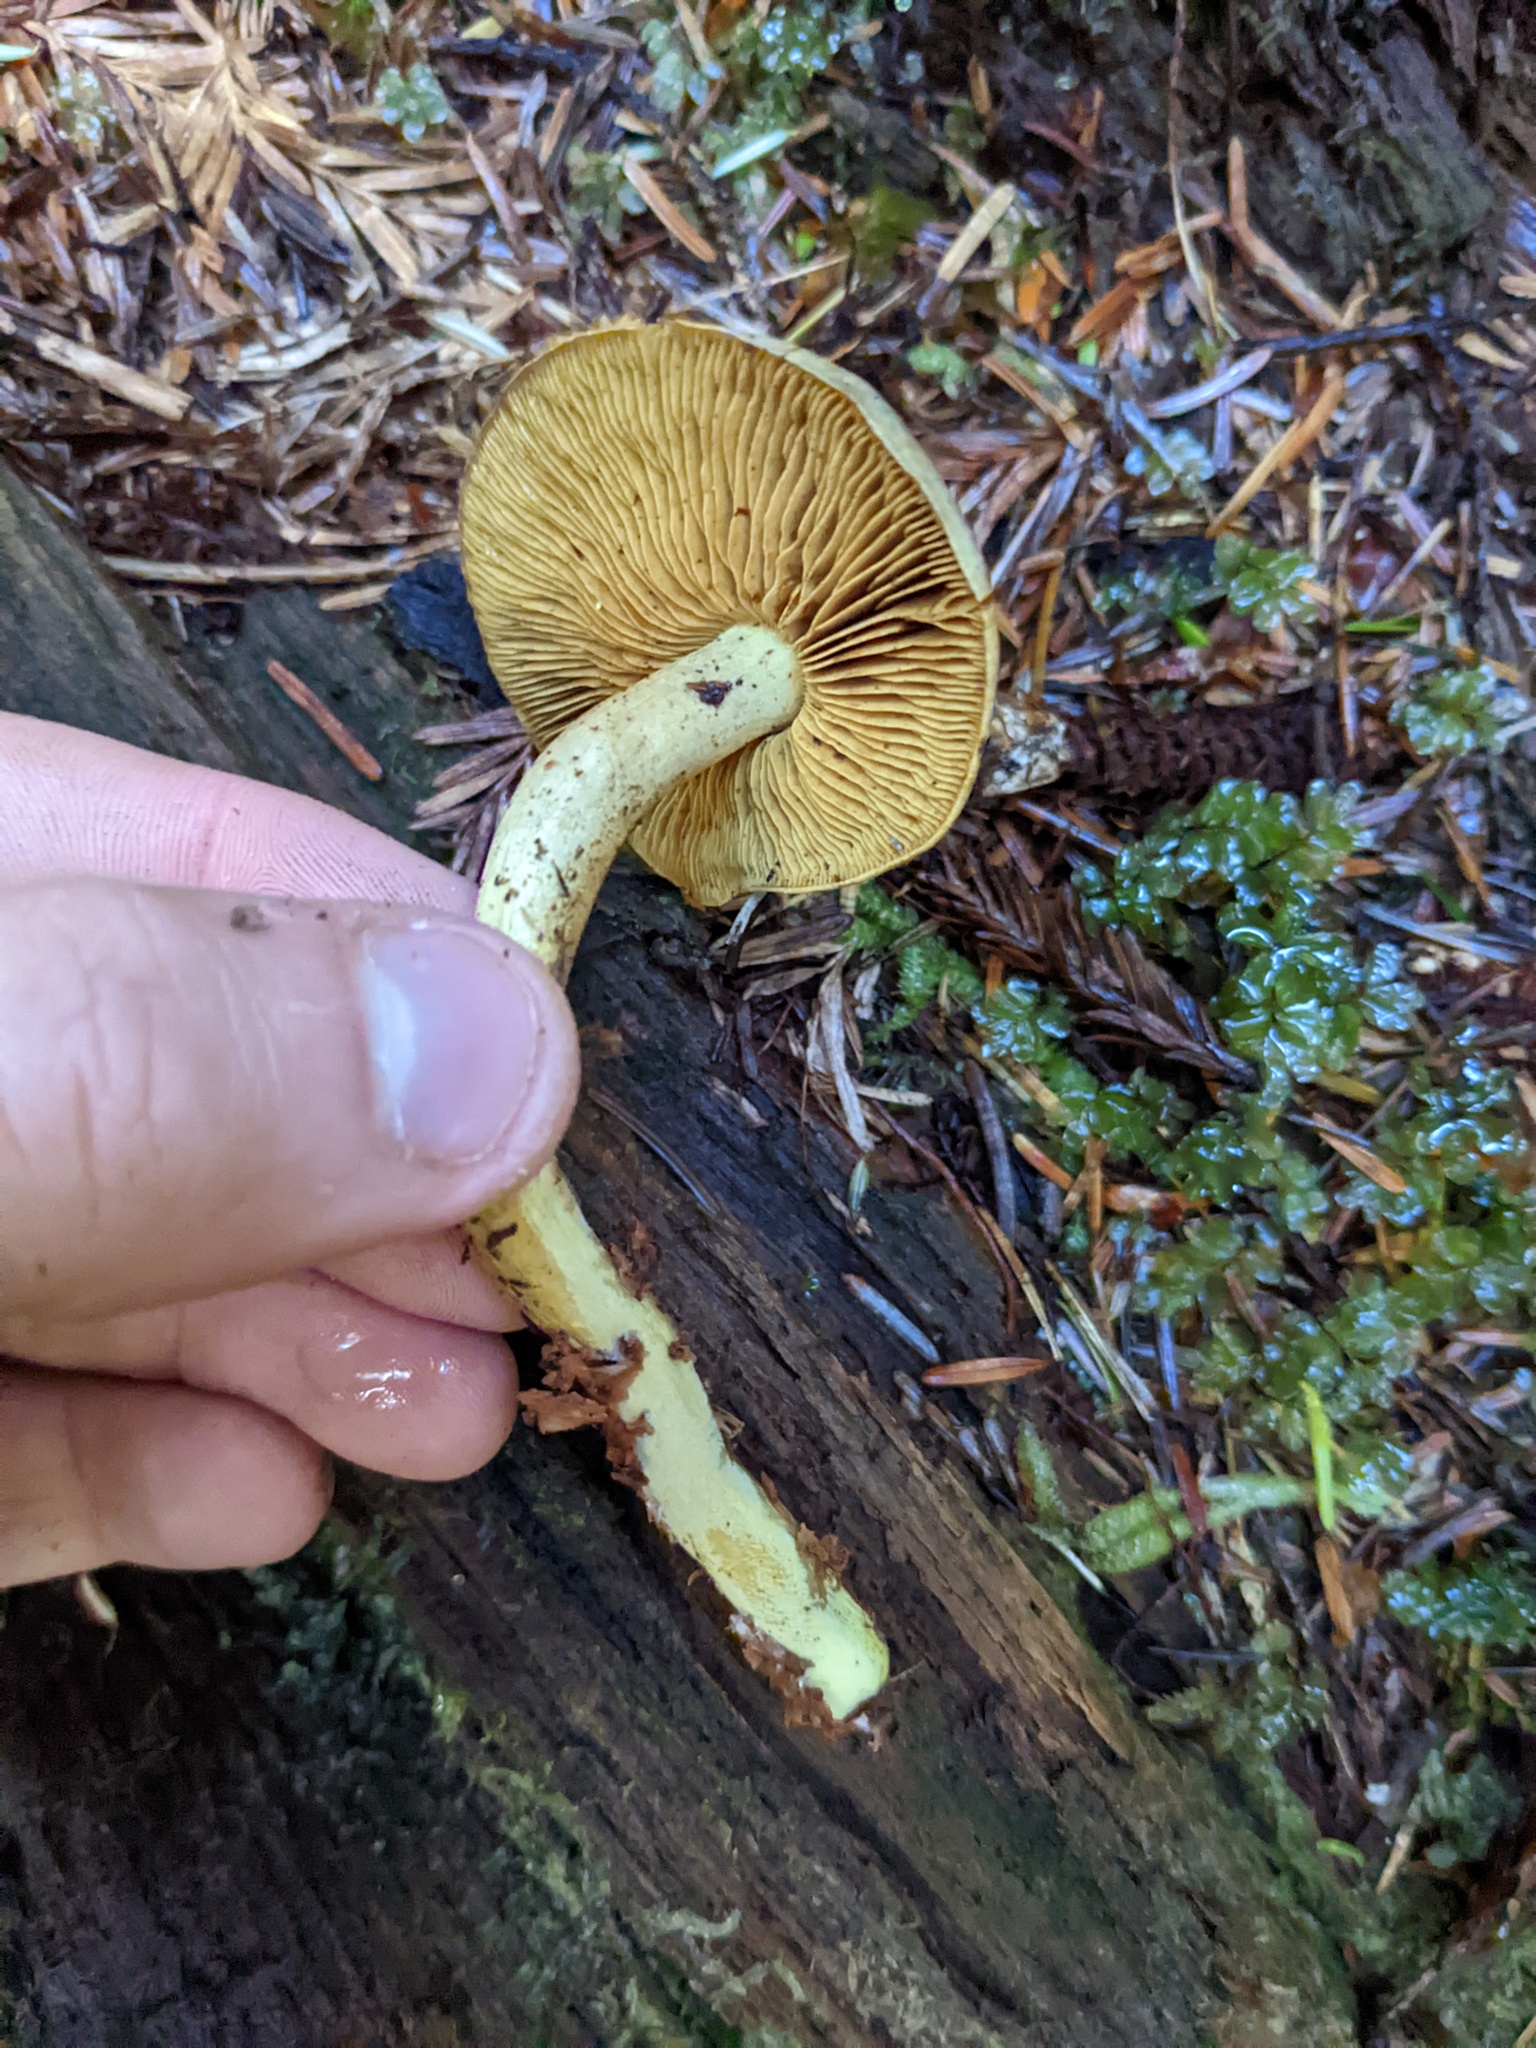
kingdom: Fungi
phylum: Basidiomycota
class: Agaricomycetes
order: Agaricales
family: Hymenogastraceae
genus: Gymnopilus
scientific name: Gymnopilus punctifolius
